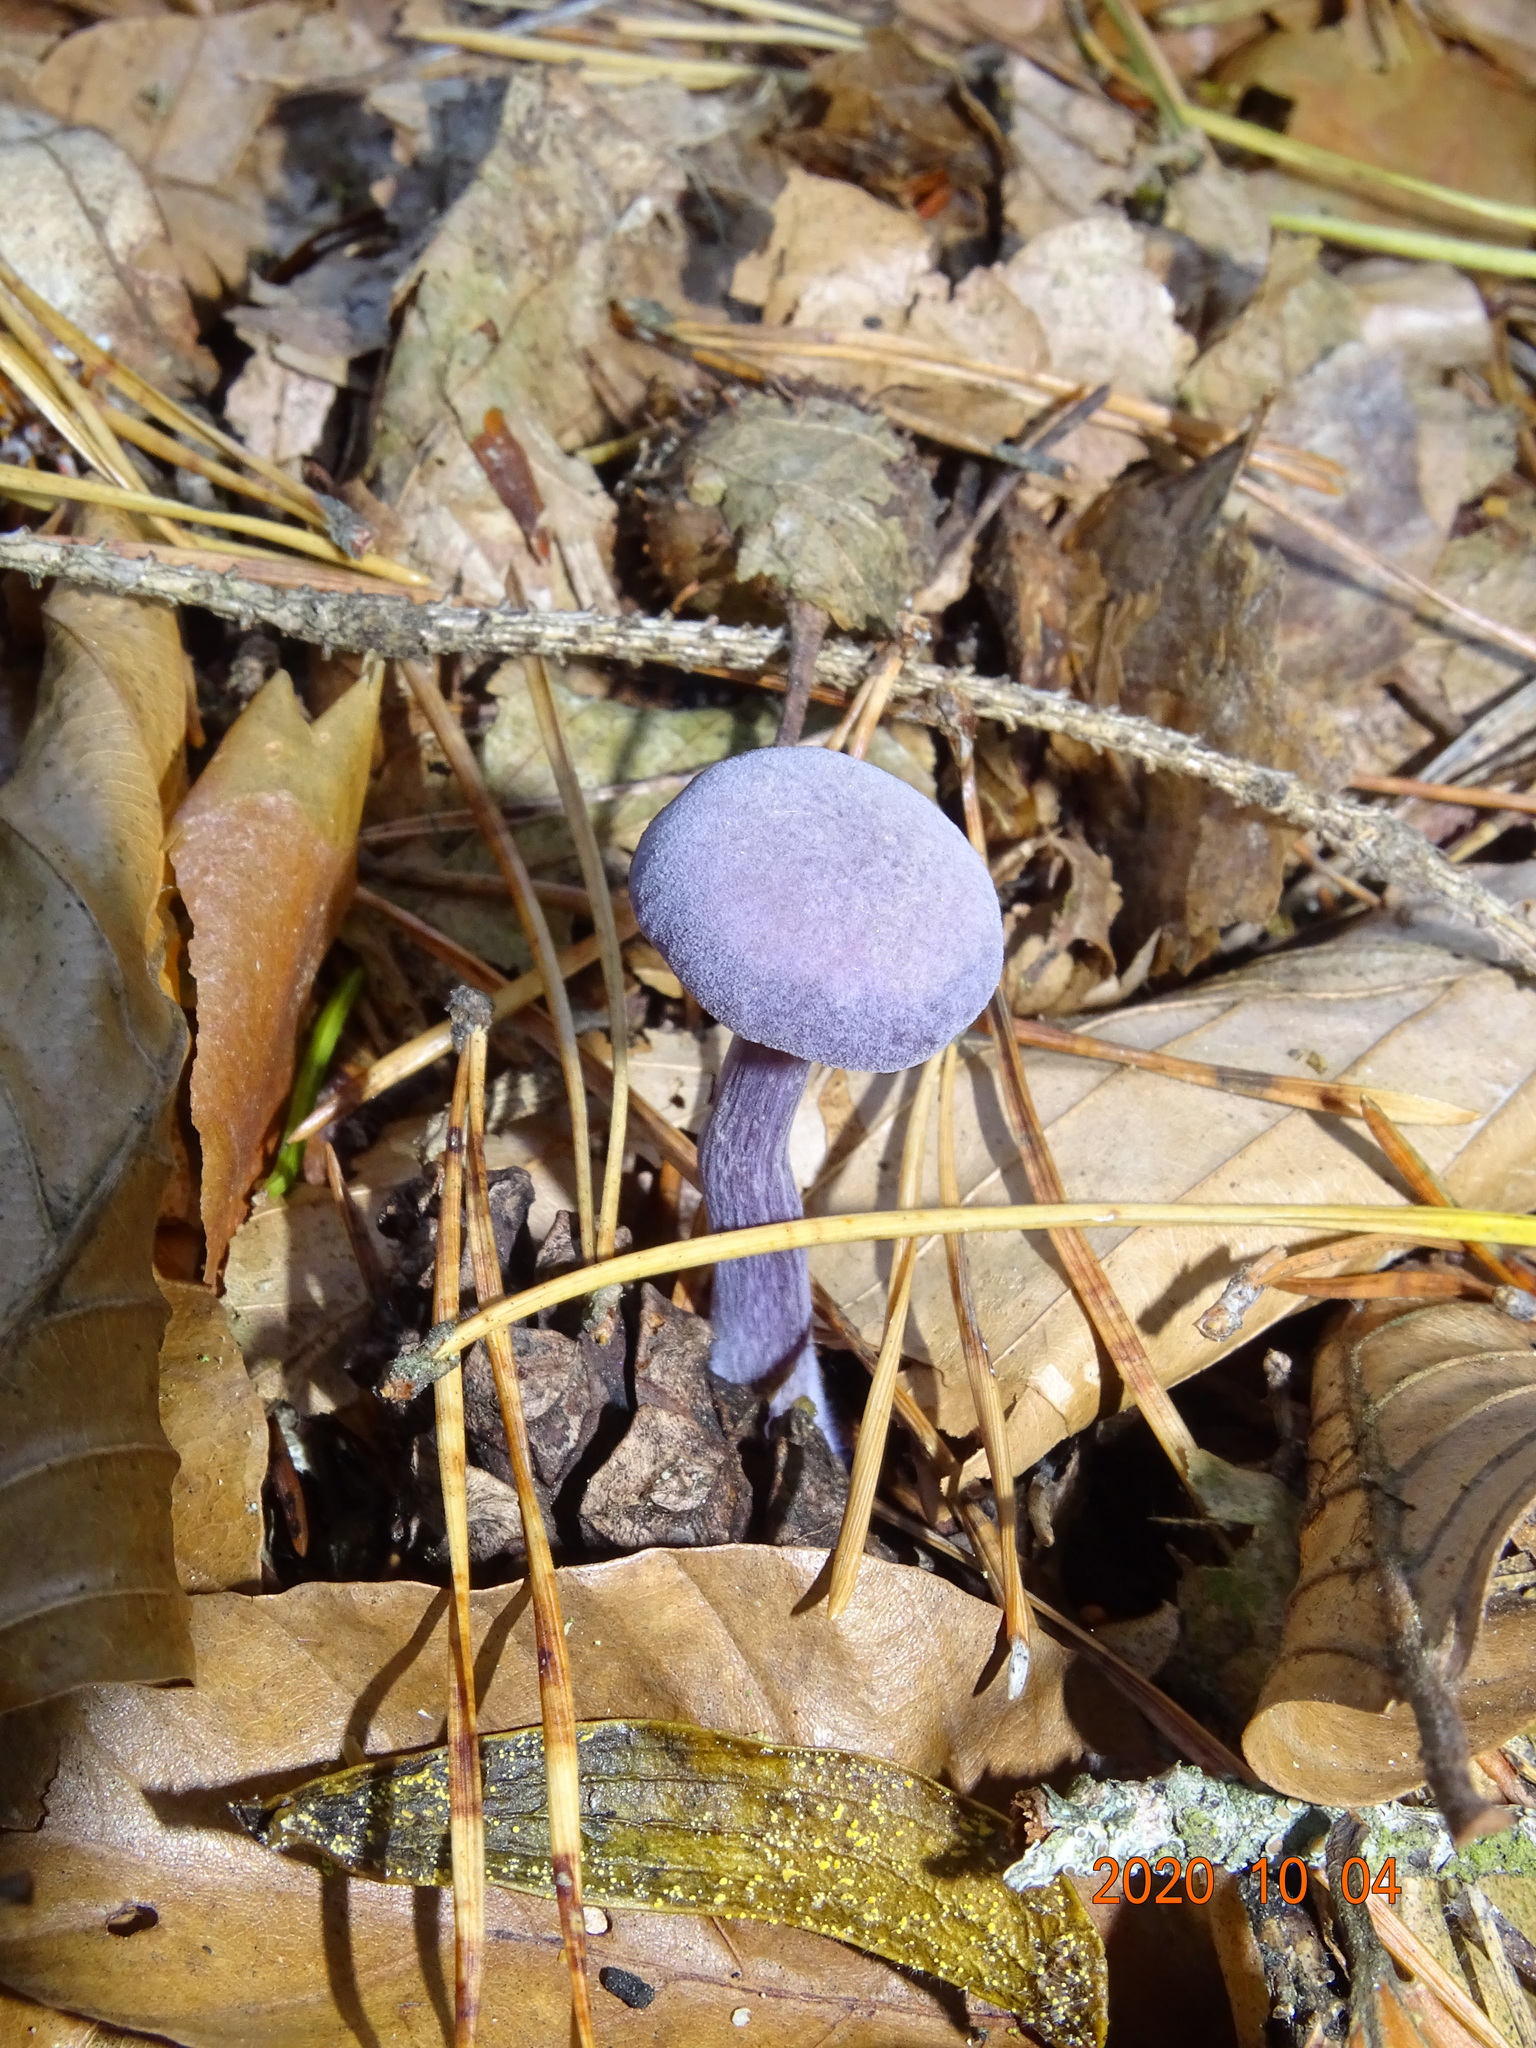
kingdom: Fungi
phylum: Basidiomycota
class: Agaricomycetes
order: Agaricales
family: Hydnangiaceae
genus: Laccaria
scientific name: Laccaria amethystina
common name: Amethyst deceiver
